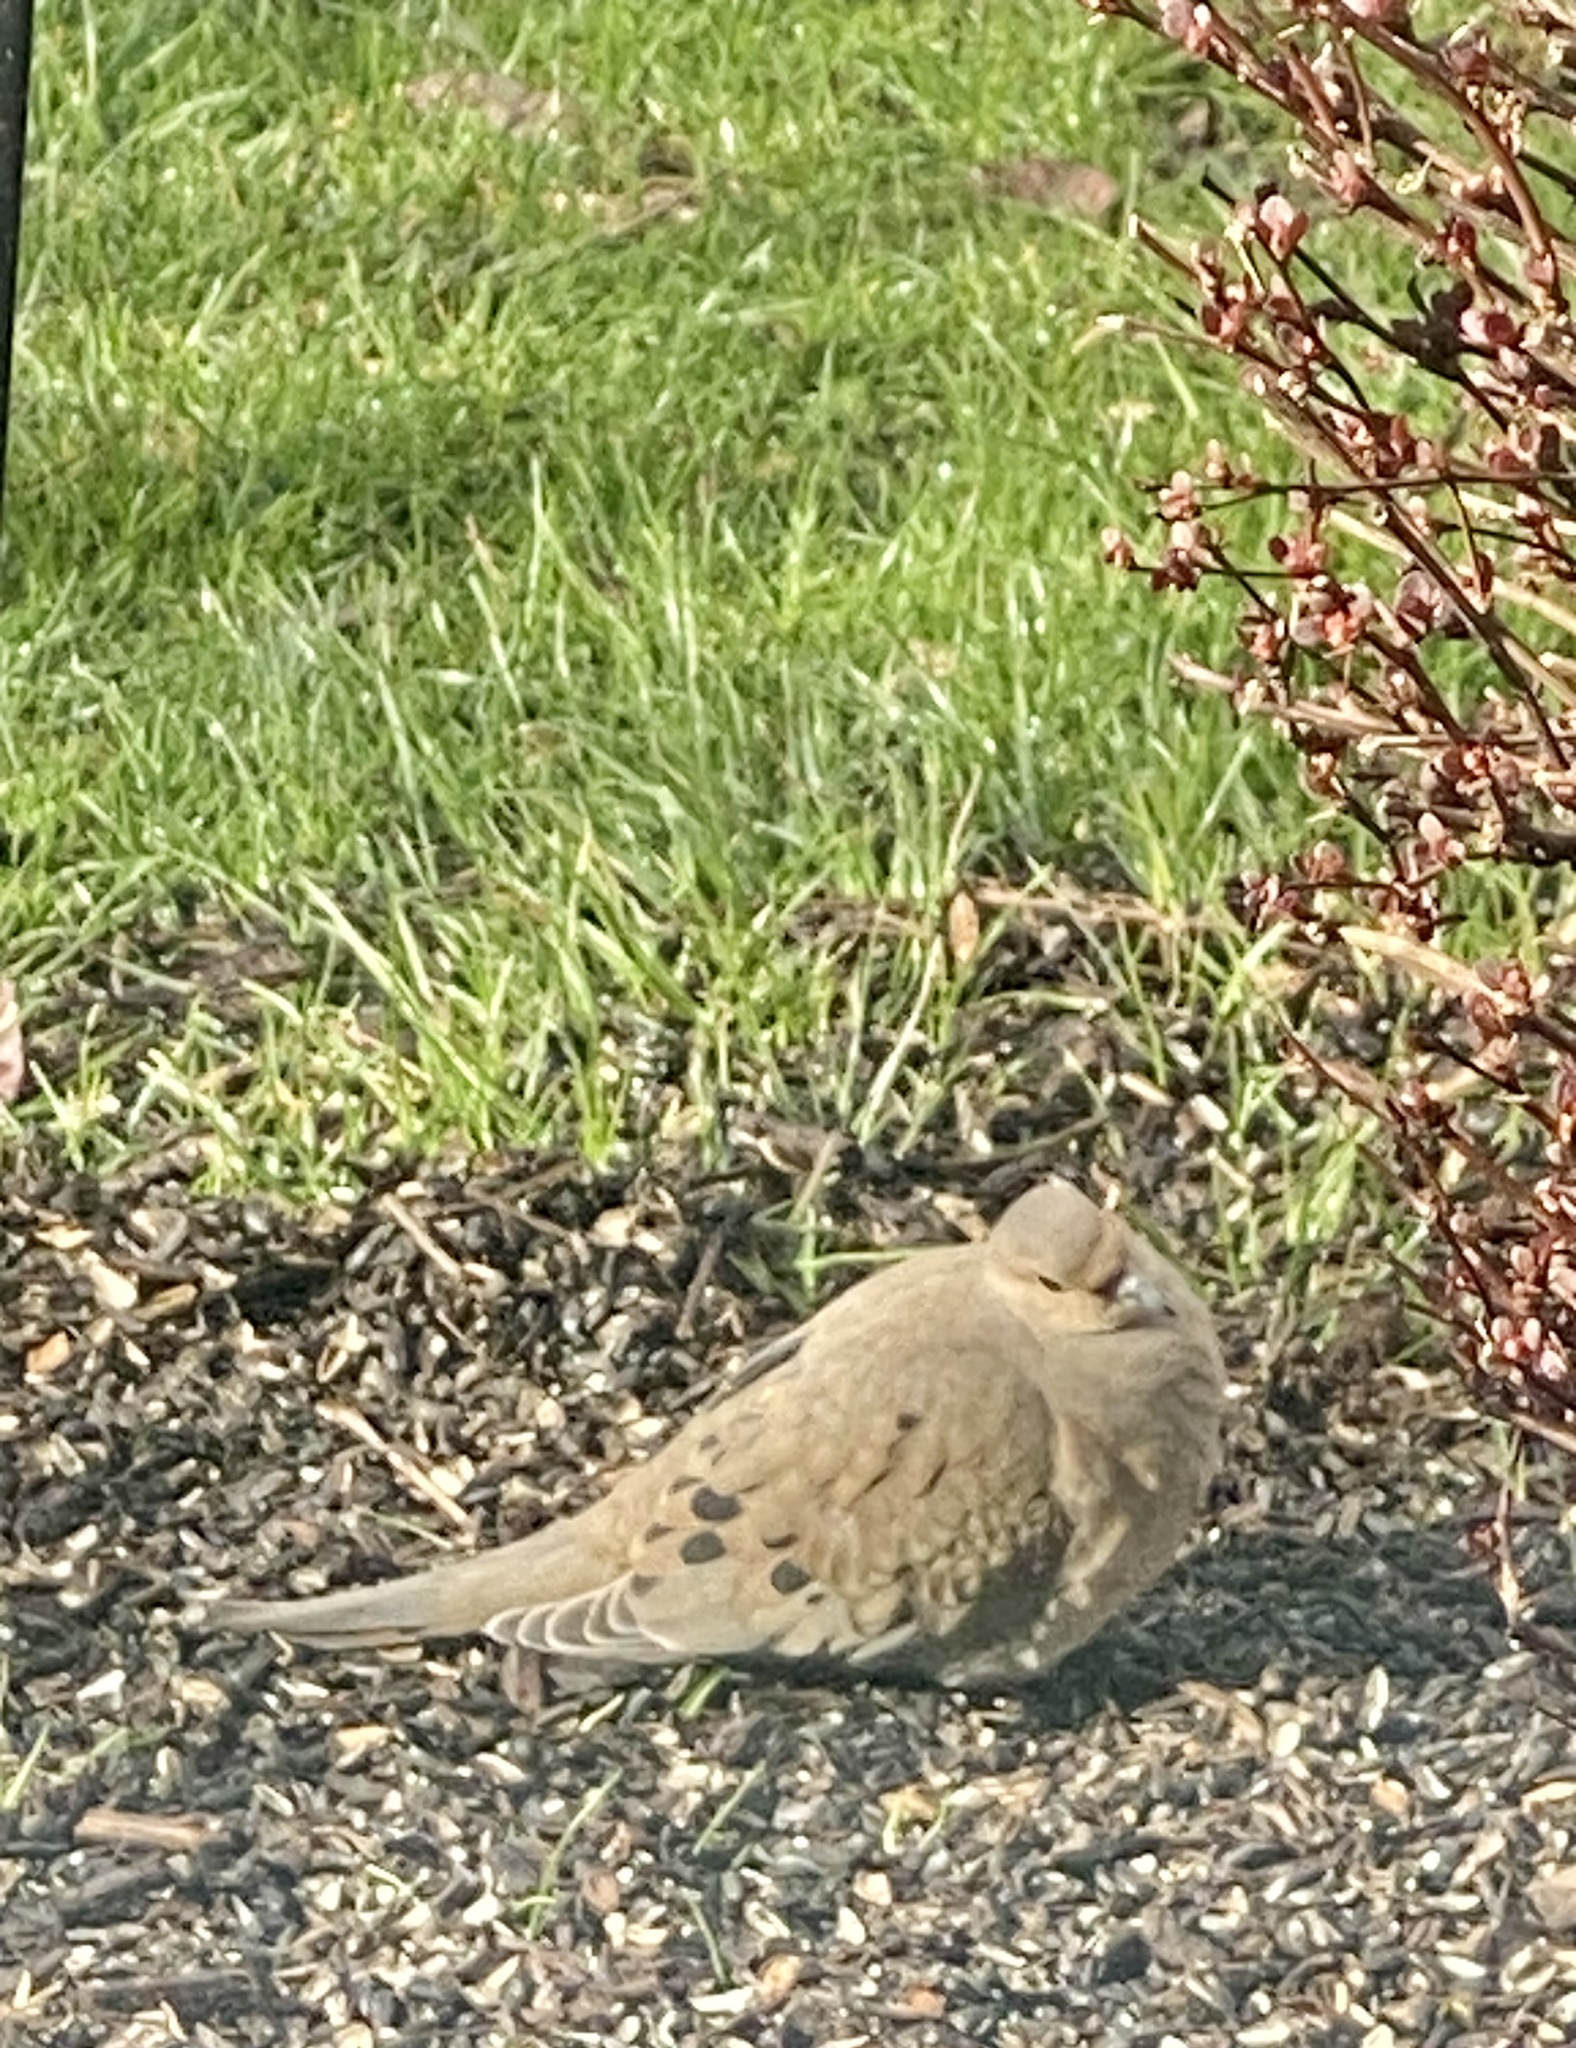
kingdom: Animalia
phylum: Chordata
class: Aves
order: Columbiformes
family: Columbidae
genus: Zenaida
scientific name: Zenaida macroura
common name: Mourning dove
